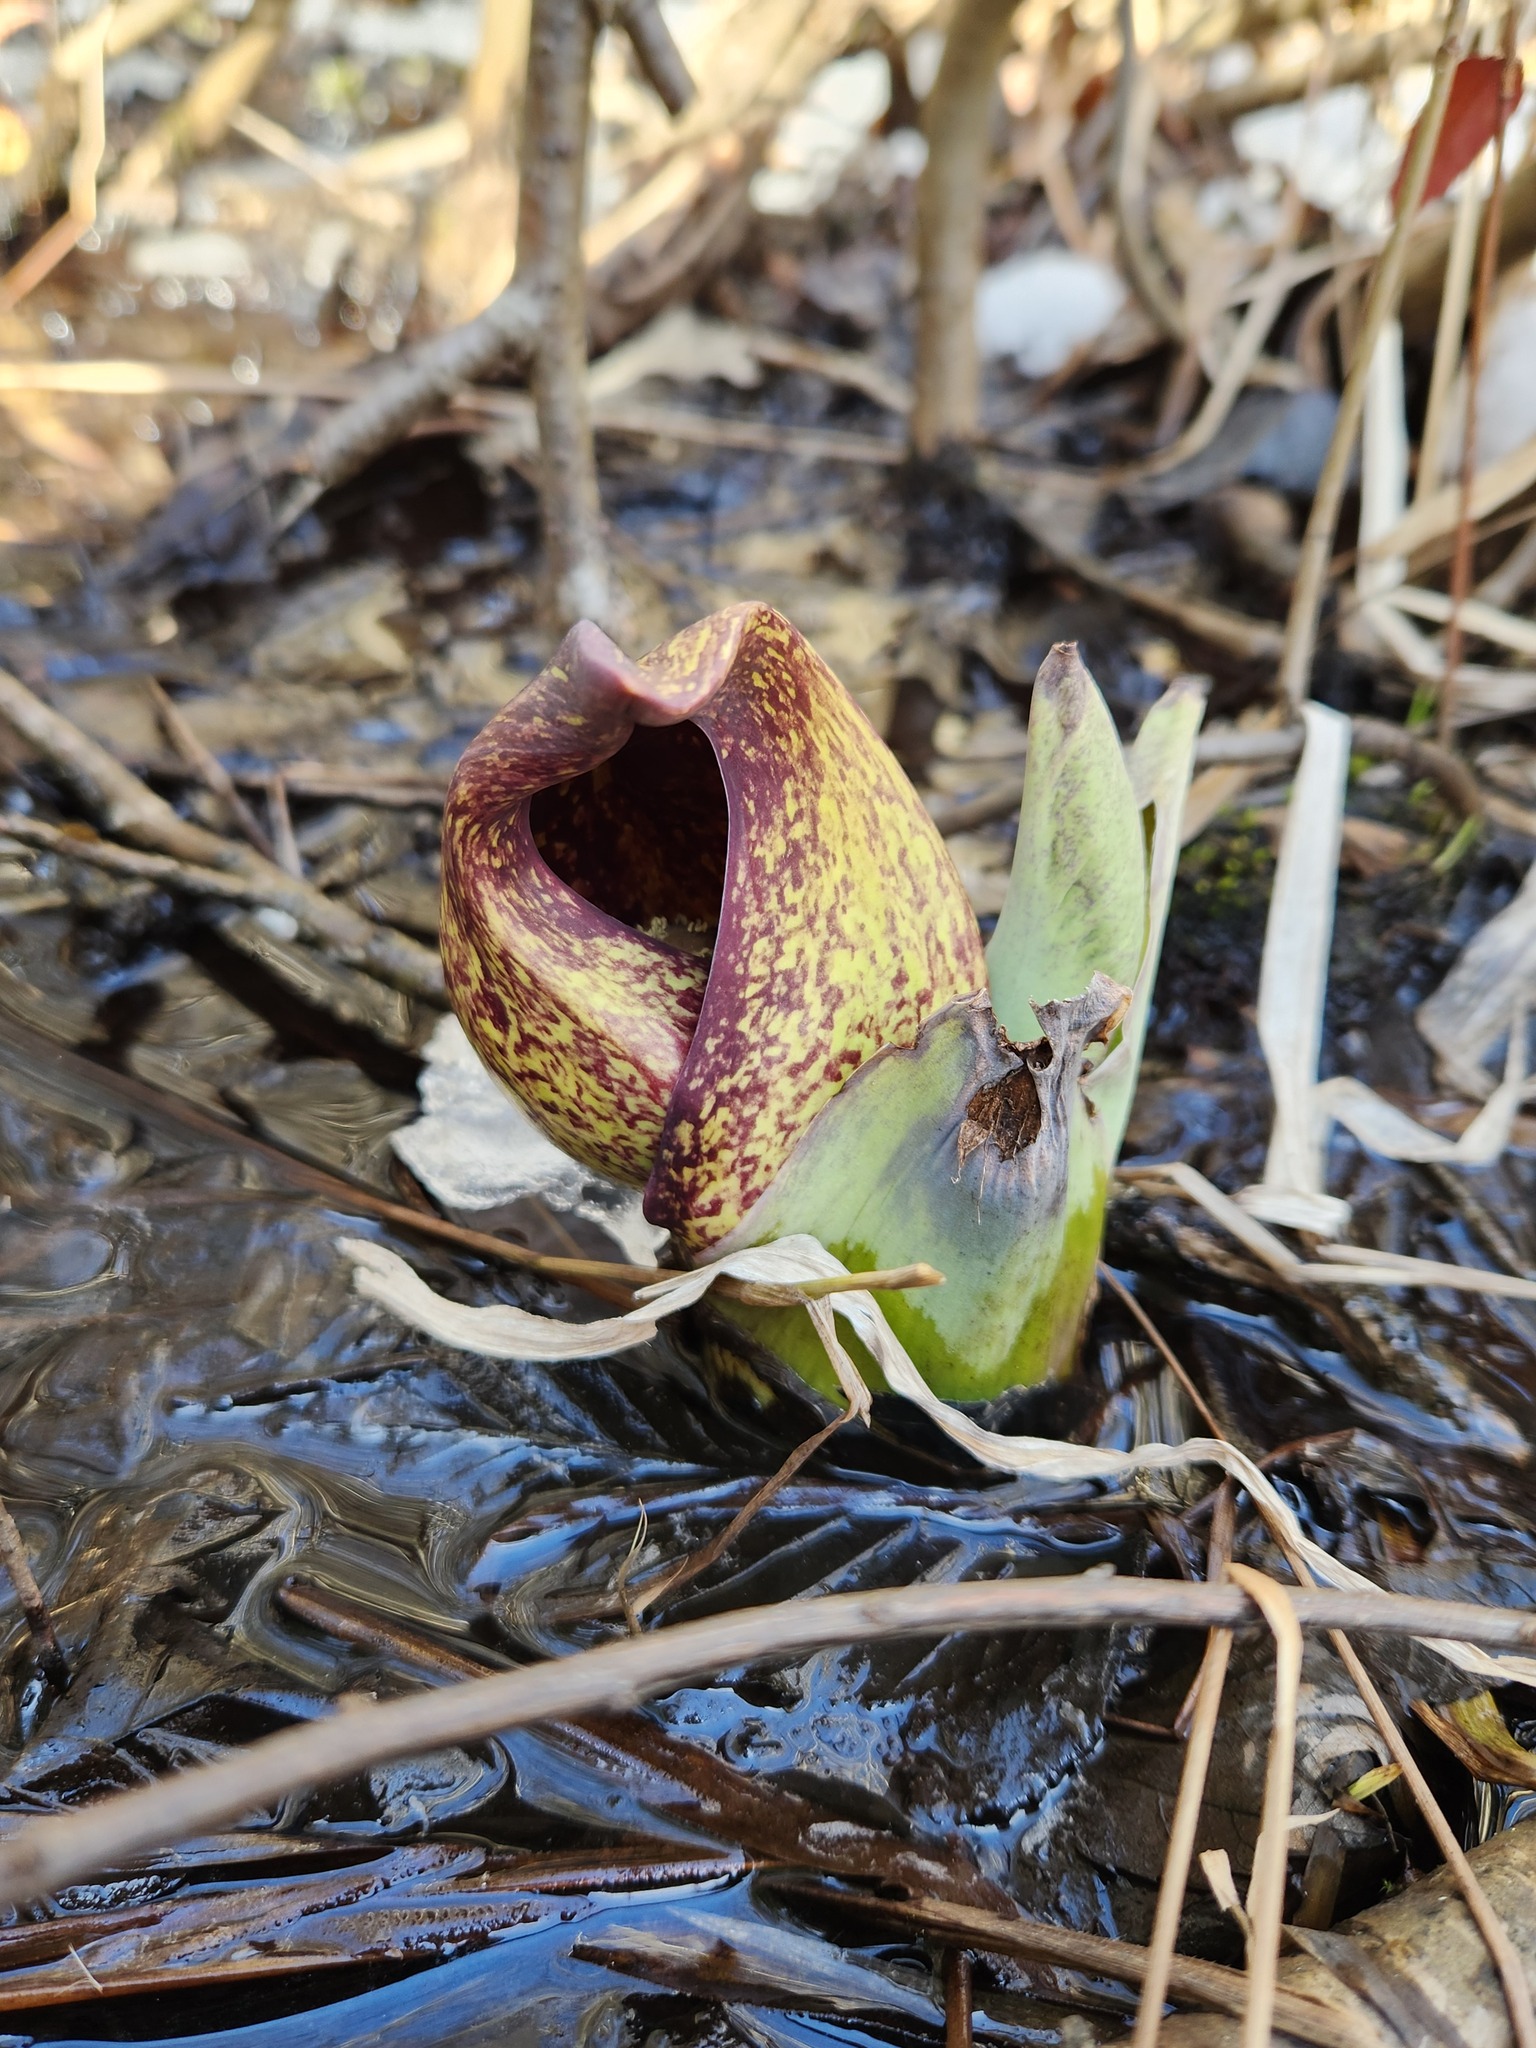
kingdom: Plantae
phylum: Tracheophyta
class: Liliopsida
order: Alismatales
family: Araceae
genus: Symplocarpus
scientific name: Symplocarpus foetidus
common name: Eastern skunk cabbage
